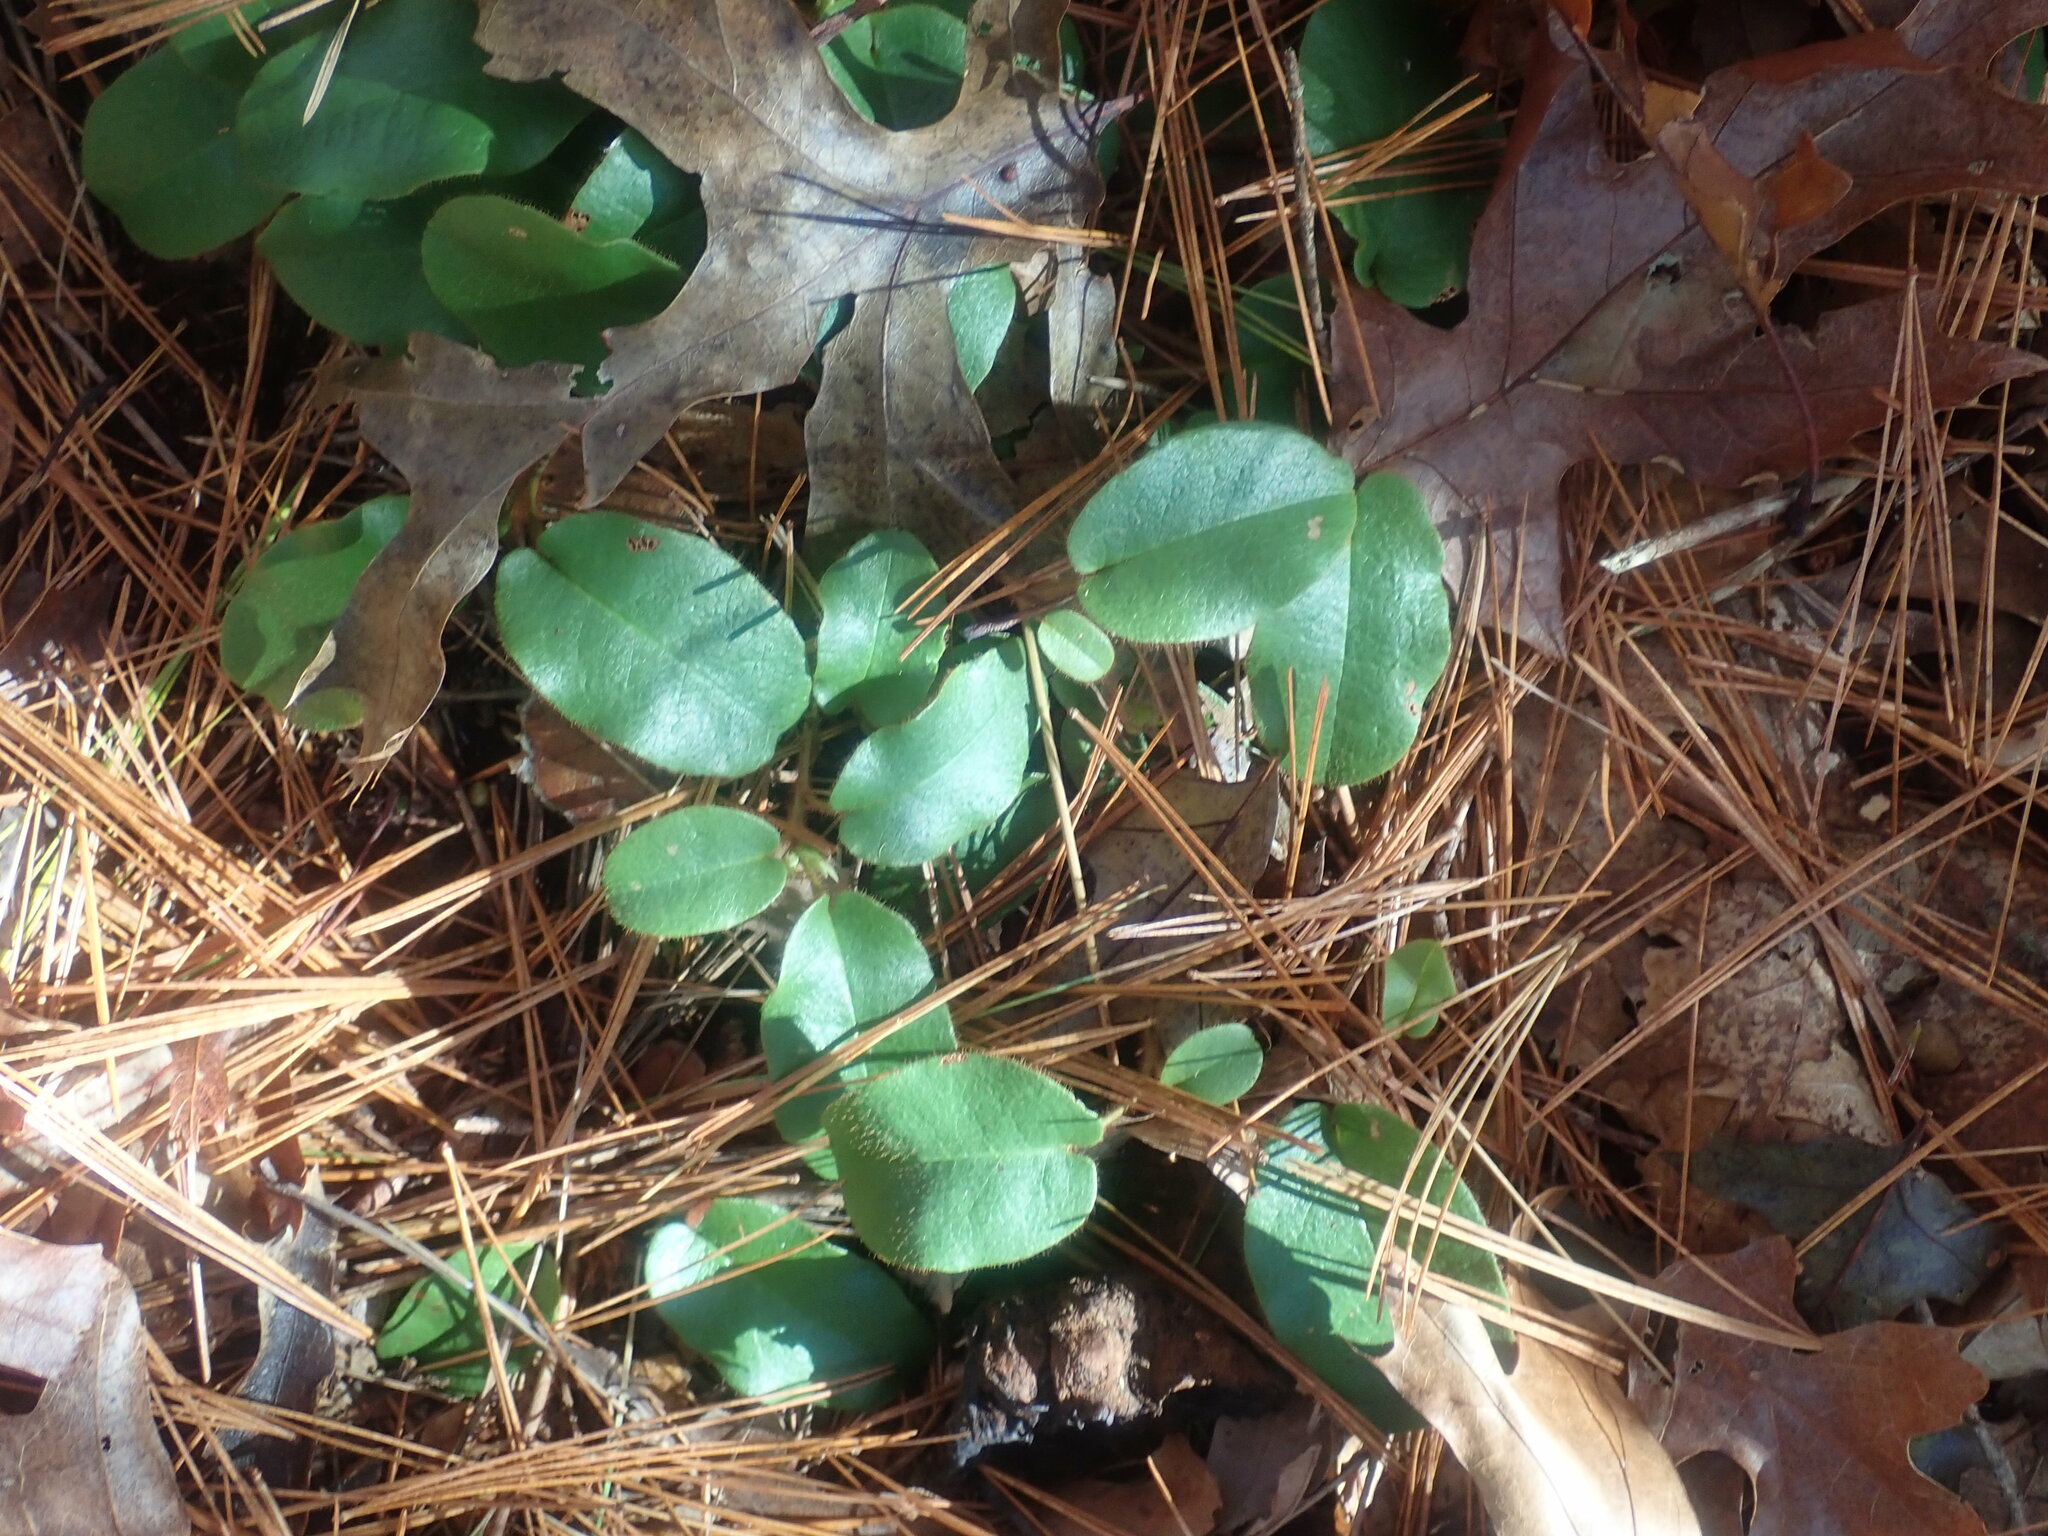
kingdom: Plantae
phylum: Tracheophyta
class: Magnoliopsida
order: Ericales
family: Ericaceae
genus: Epigaea
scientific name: Epigaea repens
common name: Gravelroot
